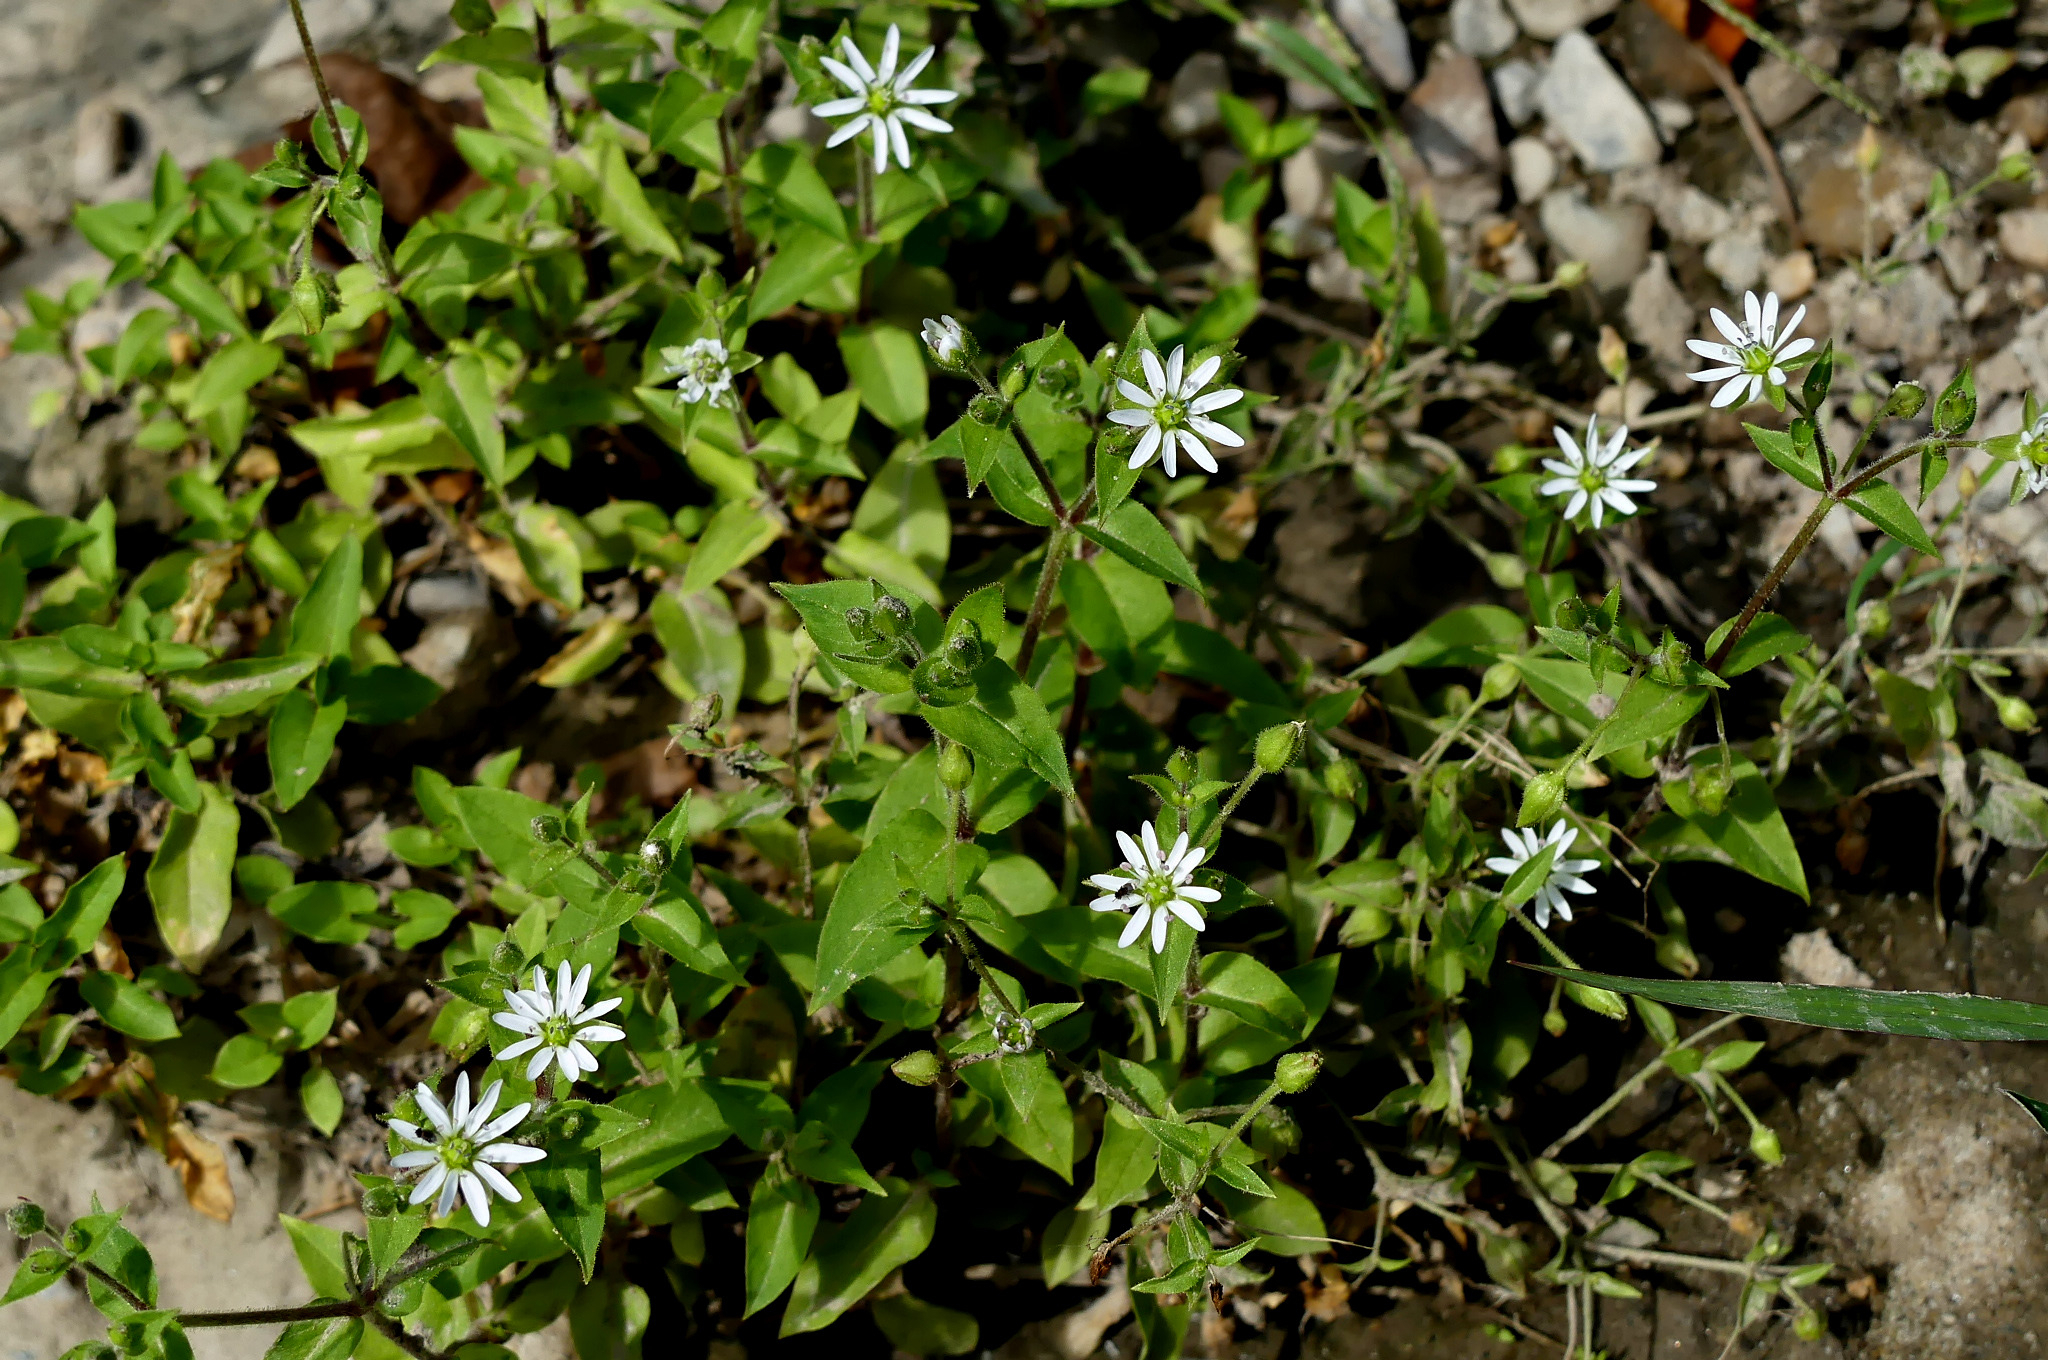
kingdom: Plantae
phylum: Tracheophyta
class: Magnoliopsida
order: Caryophyllales
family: Caryophyllaceae
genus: Stellaria
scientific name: Stellaria aquatica
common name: Water chickweed
